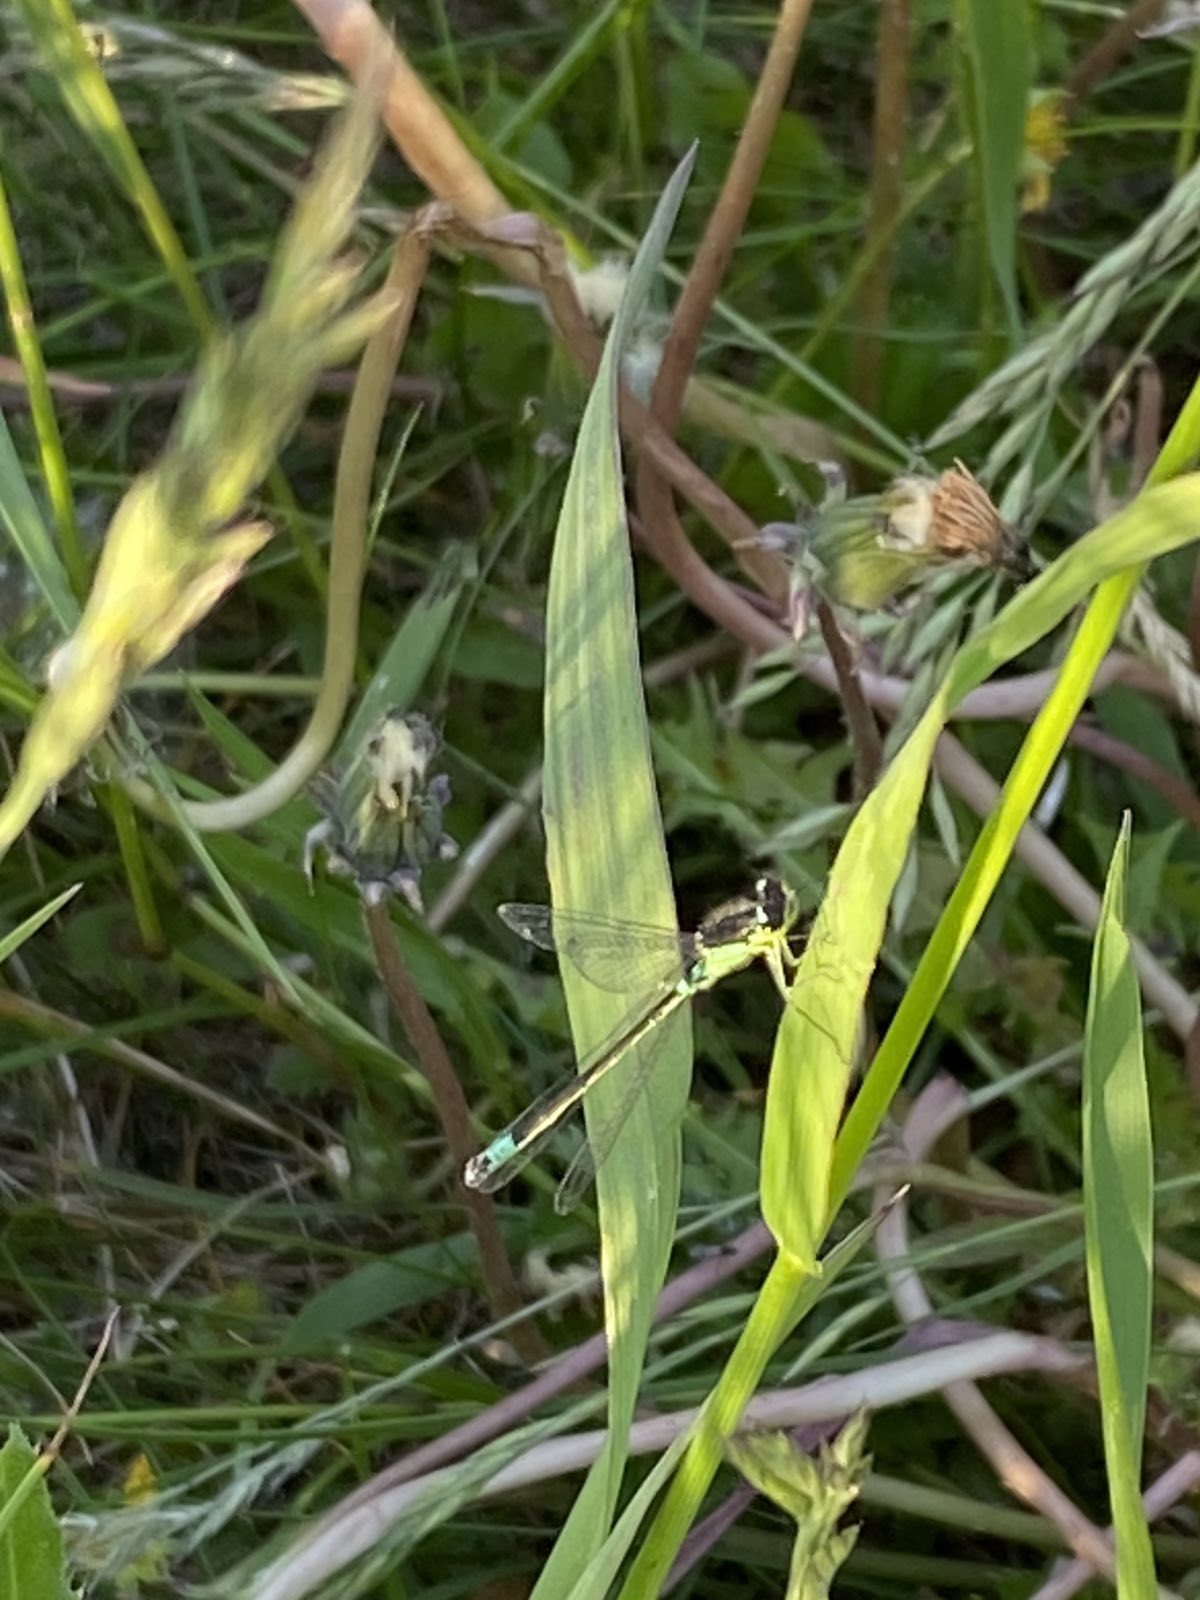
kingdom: Animalia
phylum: Arthropoda
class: Insecta
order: Odonata
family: Coenagrionidae
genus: Coenagrion
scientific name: Coenagrion armatum
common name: Dark bluet
